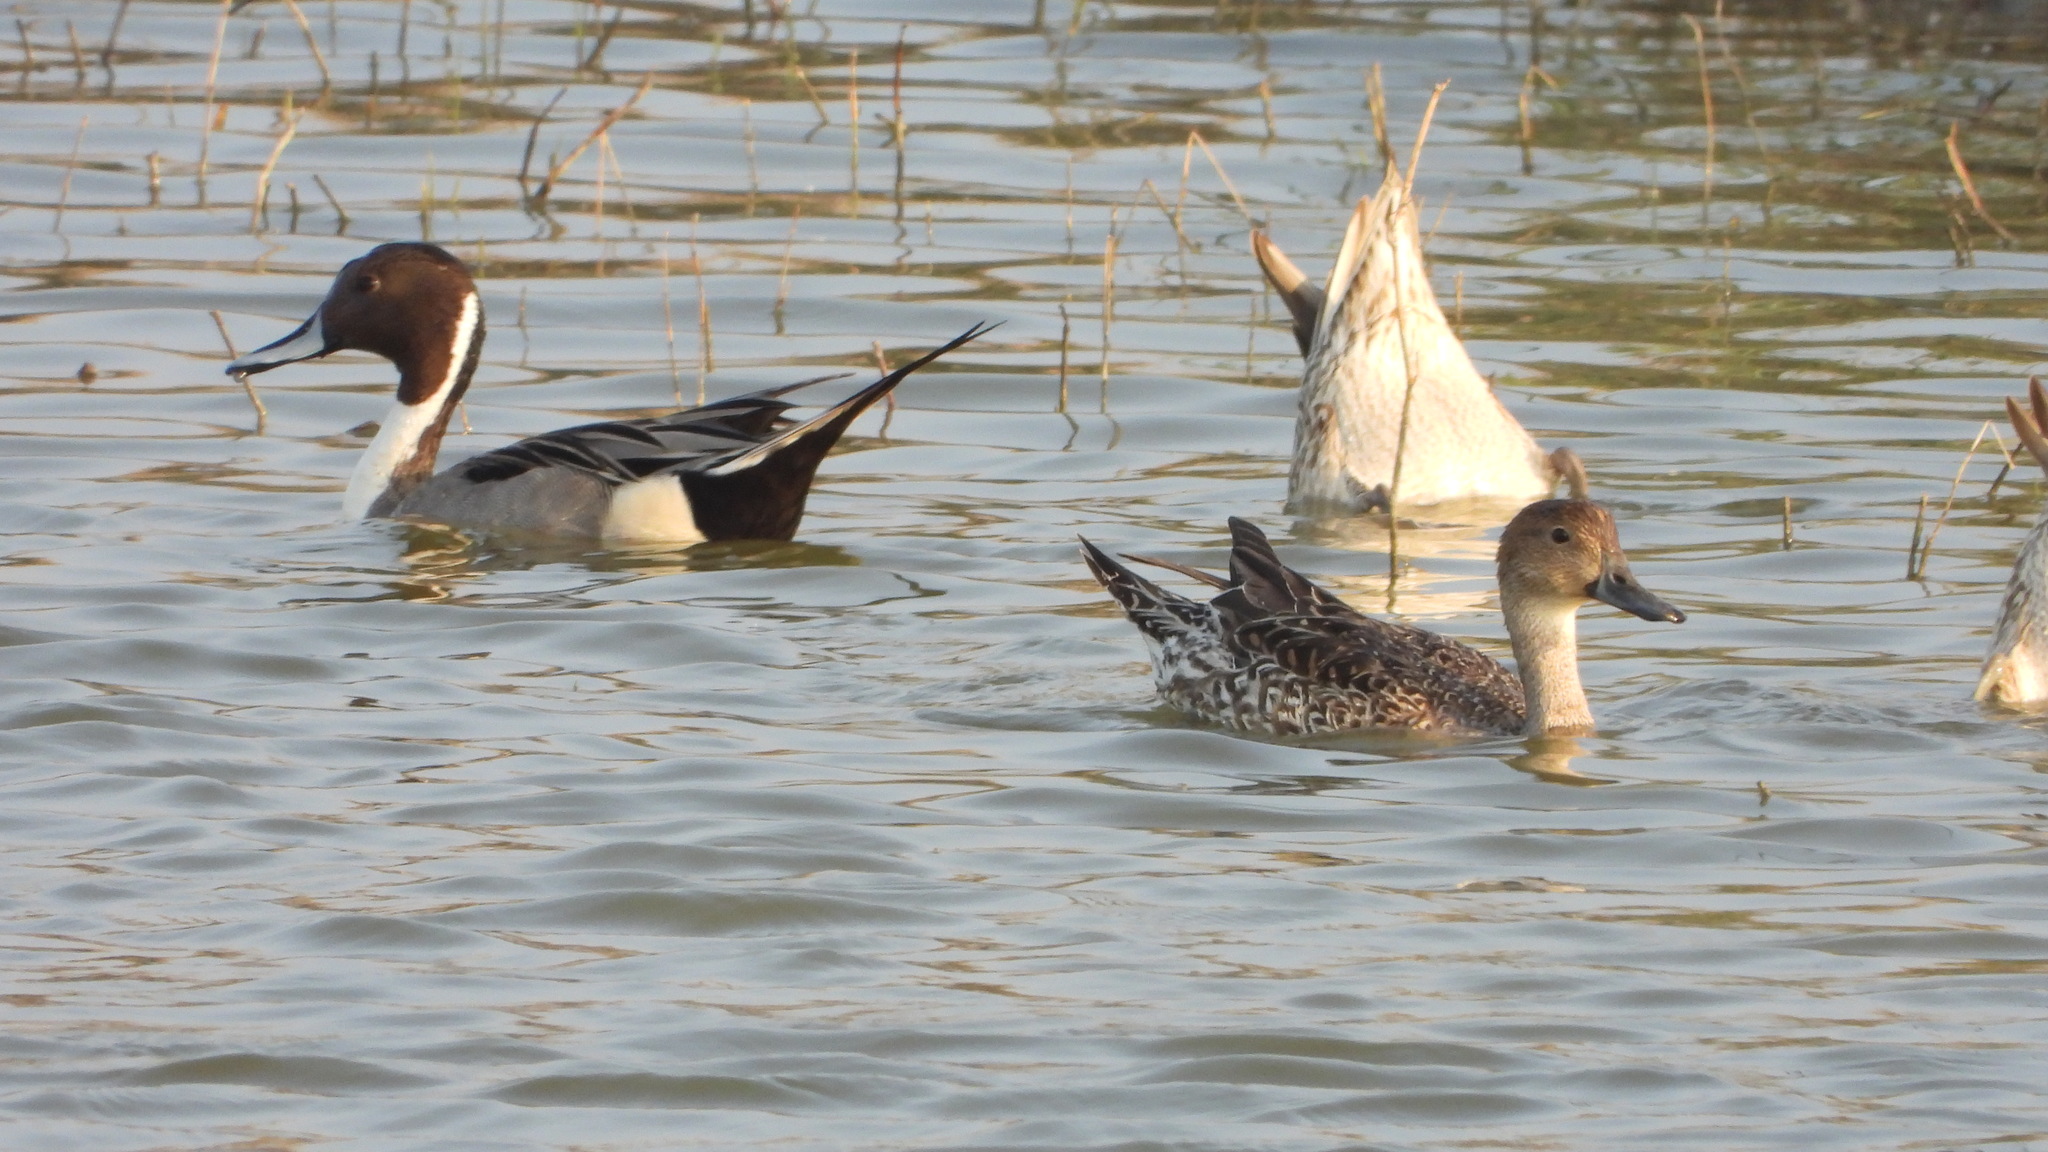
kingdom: Animalia
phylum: Chordata
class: Aves
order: Anseriformes
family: Anatidae
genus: Anas
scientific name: Anas acuta
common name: Northern pintail
